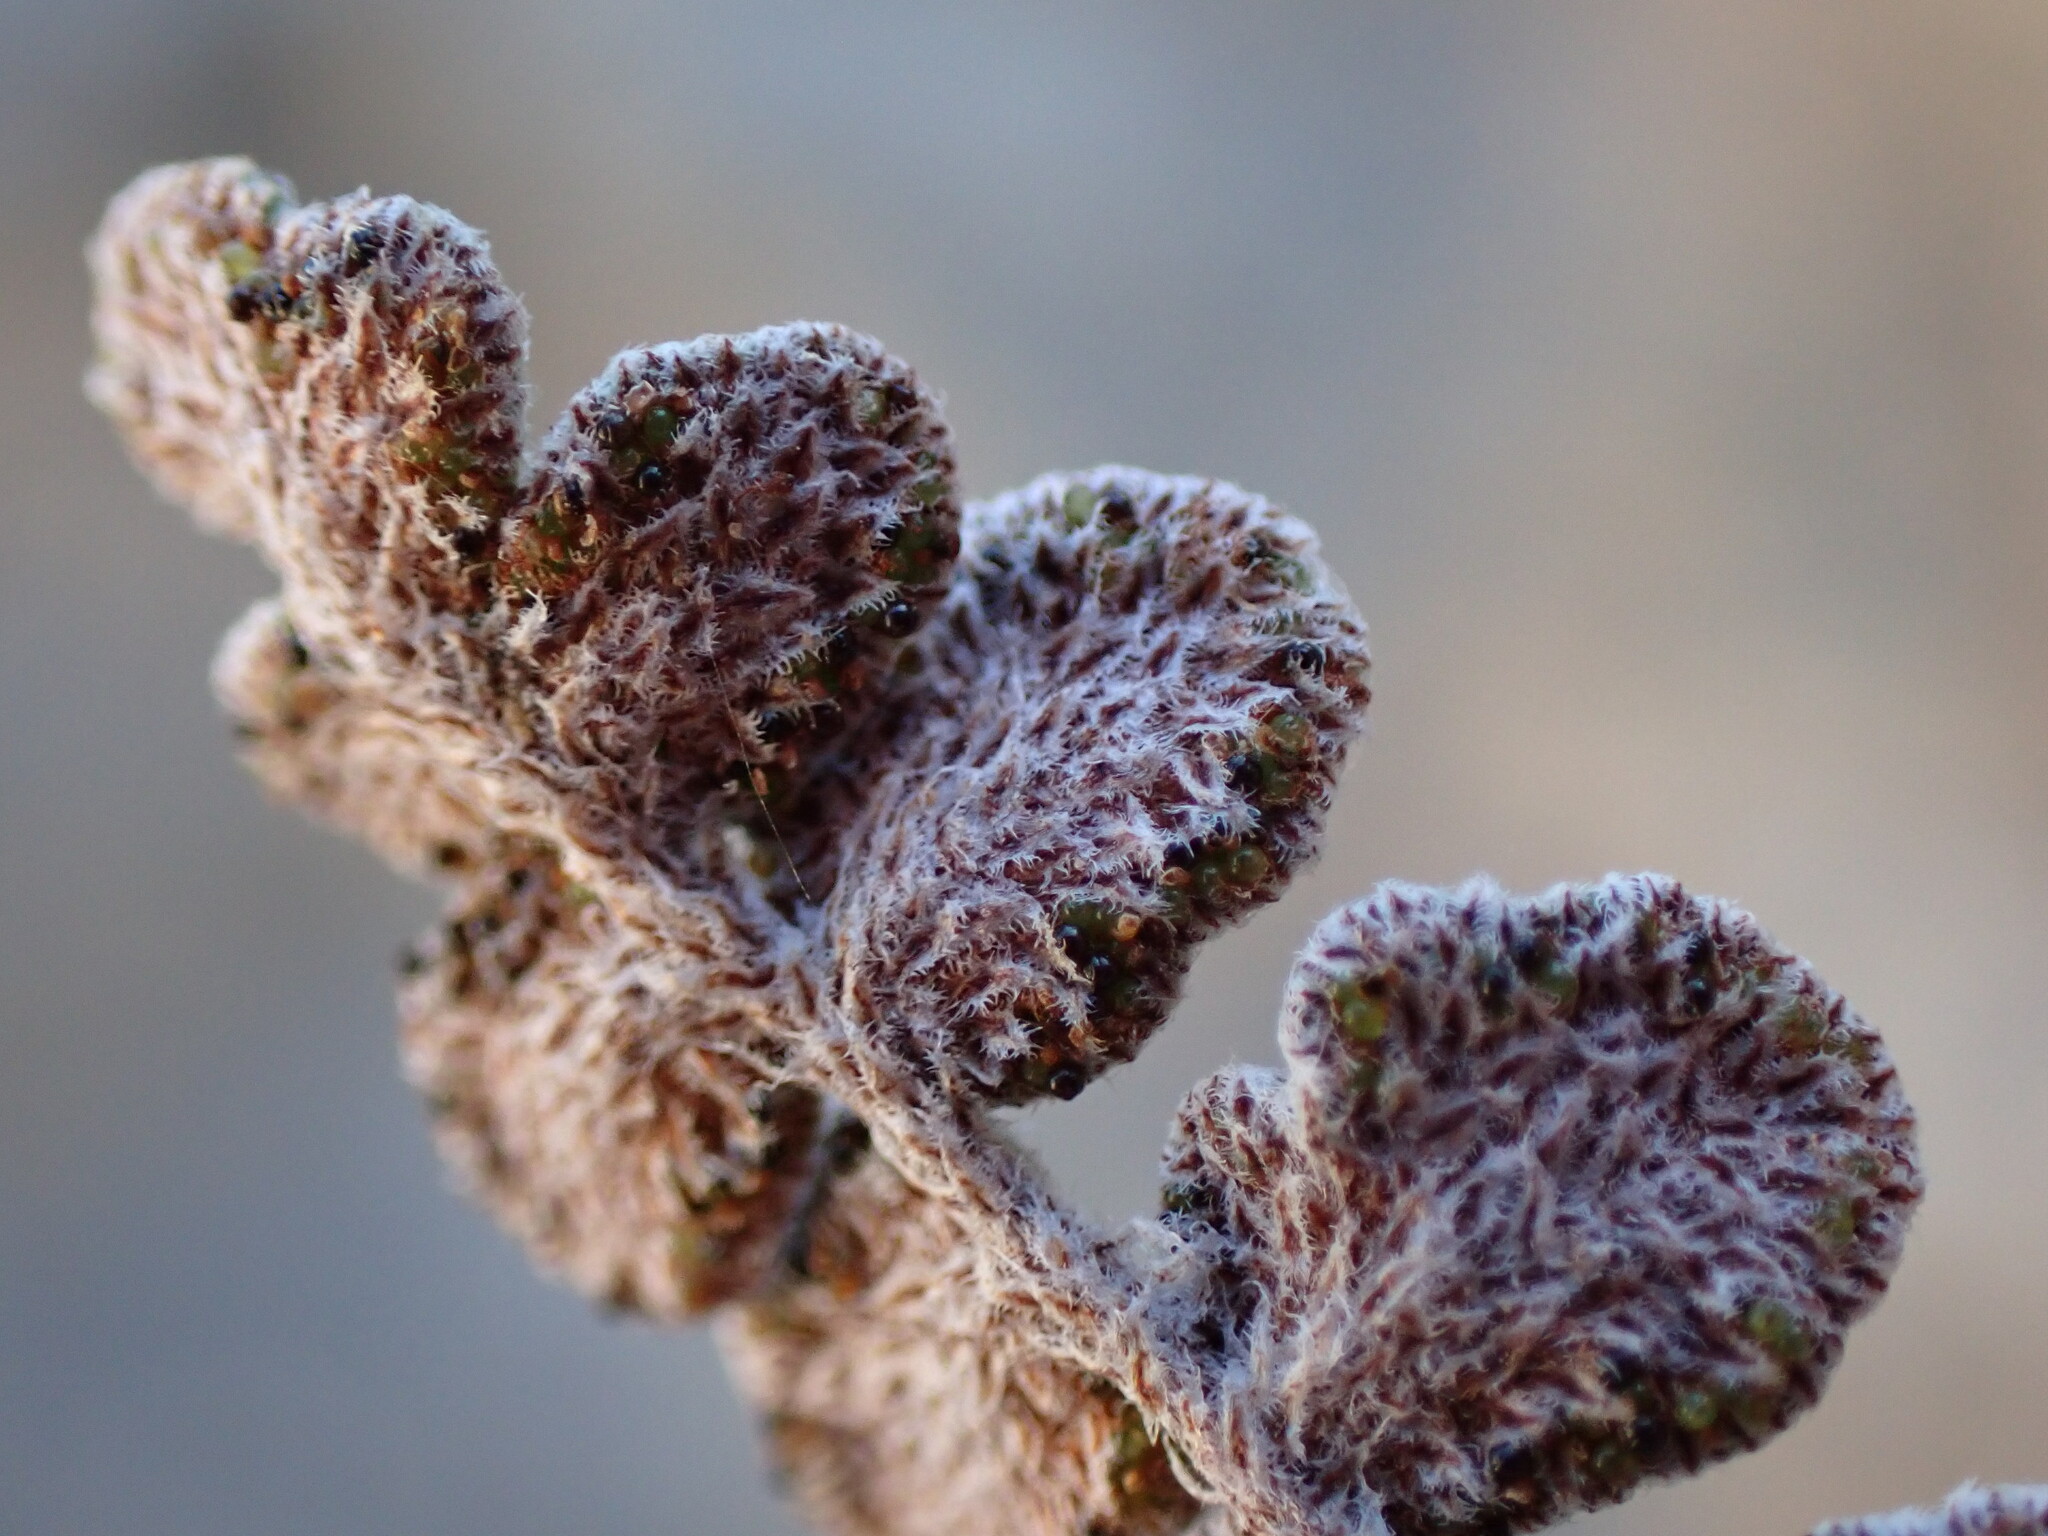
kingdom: Plantae
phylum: Tracheophyta
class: Polypodiopsida
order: Polypodiales
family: Pteridaceae
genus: Astrolepis
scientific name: Astrolepis cochisensis
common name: Scaly cloak fern
